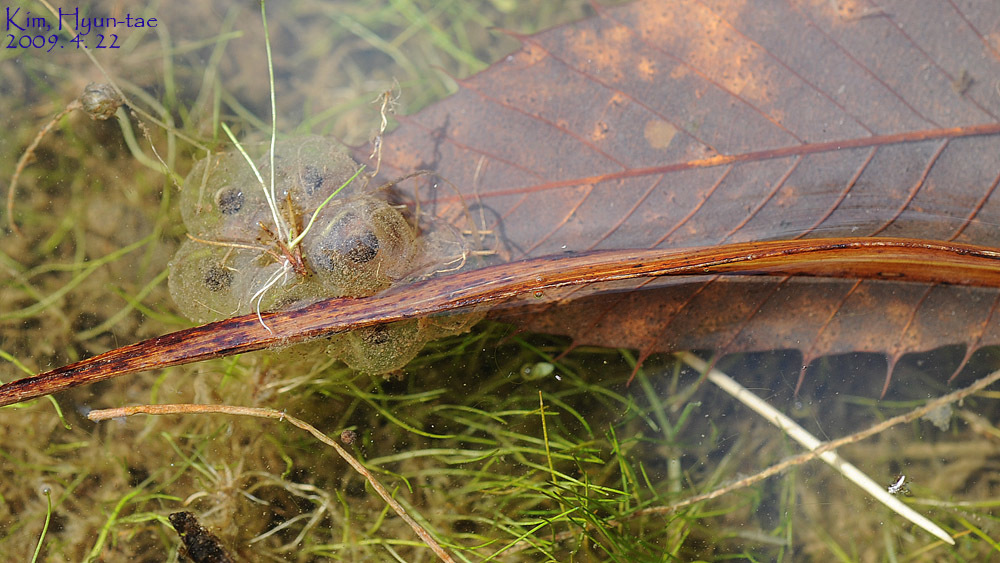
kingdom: Animalia
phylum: Chordata
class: Amphibia
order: Anura
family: Bombinatoridae
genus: Bombina
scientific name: Bombina orientalis
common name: Oriental firebelly toad
